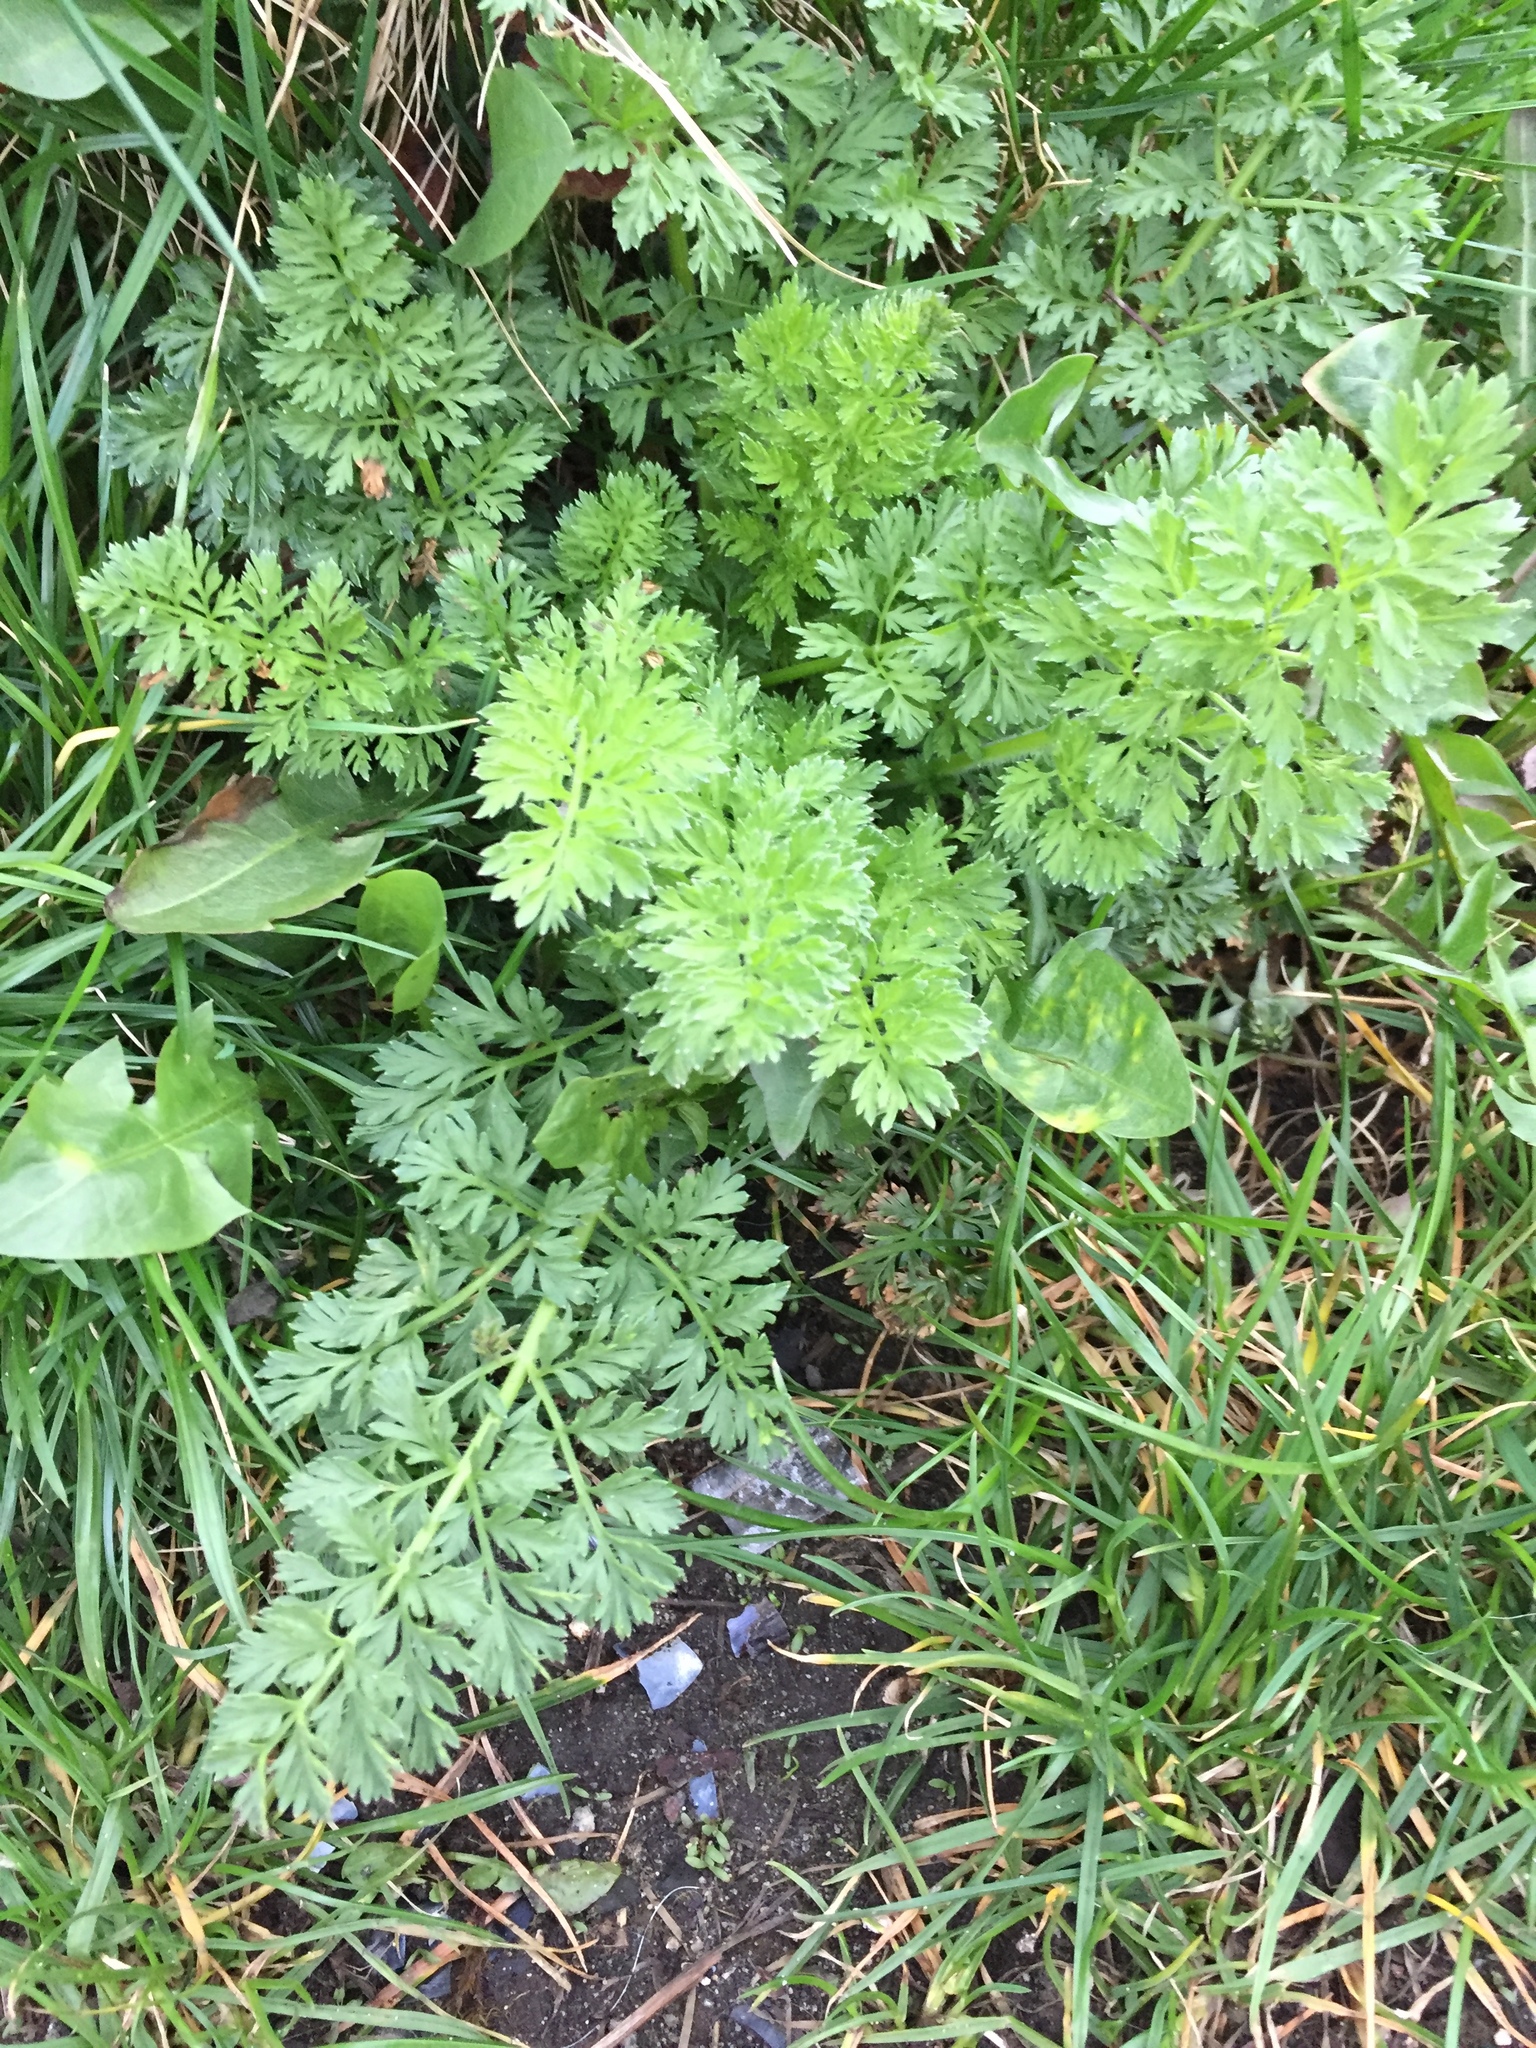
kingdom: Plantae
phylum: Tracheophyta
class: Magnoliopsida
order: Apiales
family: Apiaceae
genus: Daucus
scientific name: Daucus carota
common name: Wild carrot
